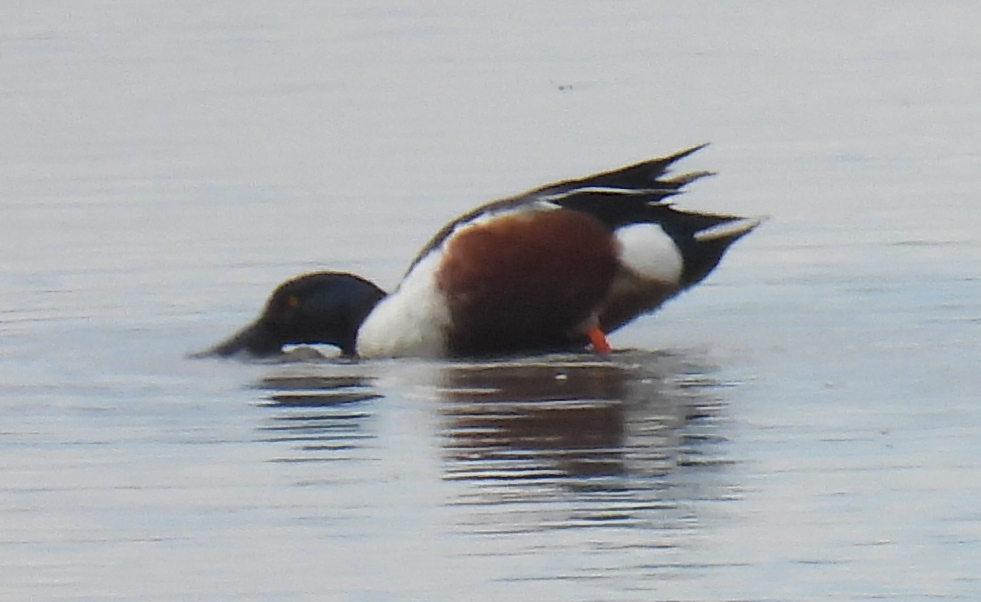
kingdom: Animalia
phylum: Chordata
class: Aves
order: Anseriformes
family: Anatidae
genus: Spatula
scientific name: Spatula clypeata
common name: Northern shoveler
